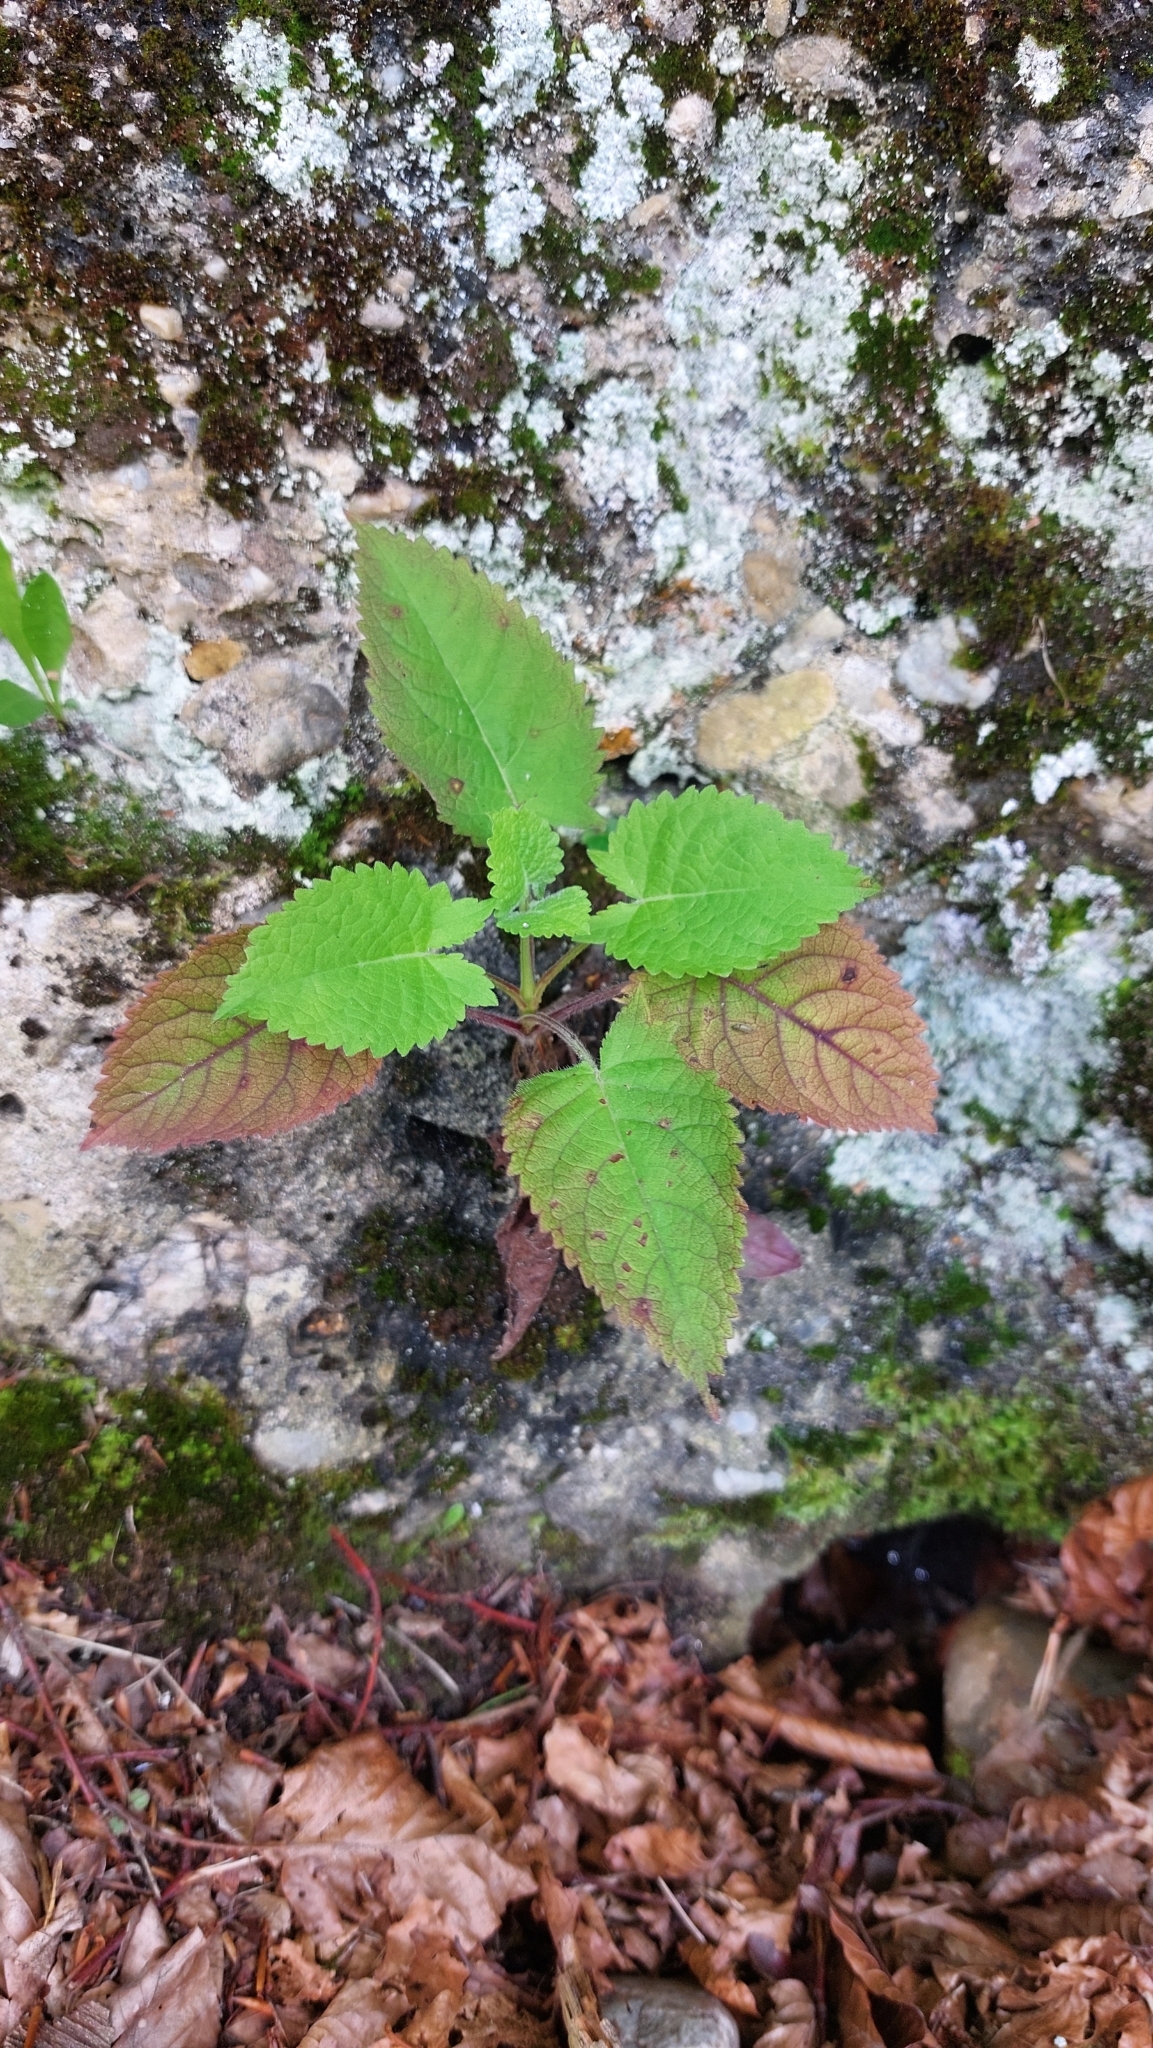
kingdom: Plantae
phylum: Tracheophyta
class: Magnoliopsida
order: Lamiales
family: Lamiaceae
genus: Salvia
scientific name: Salvia glutinosa
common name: Sticky clary
